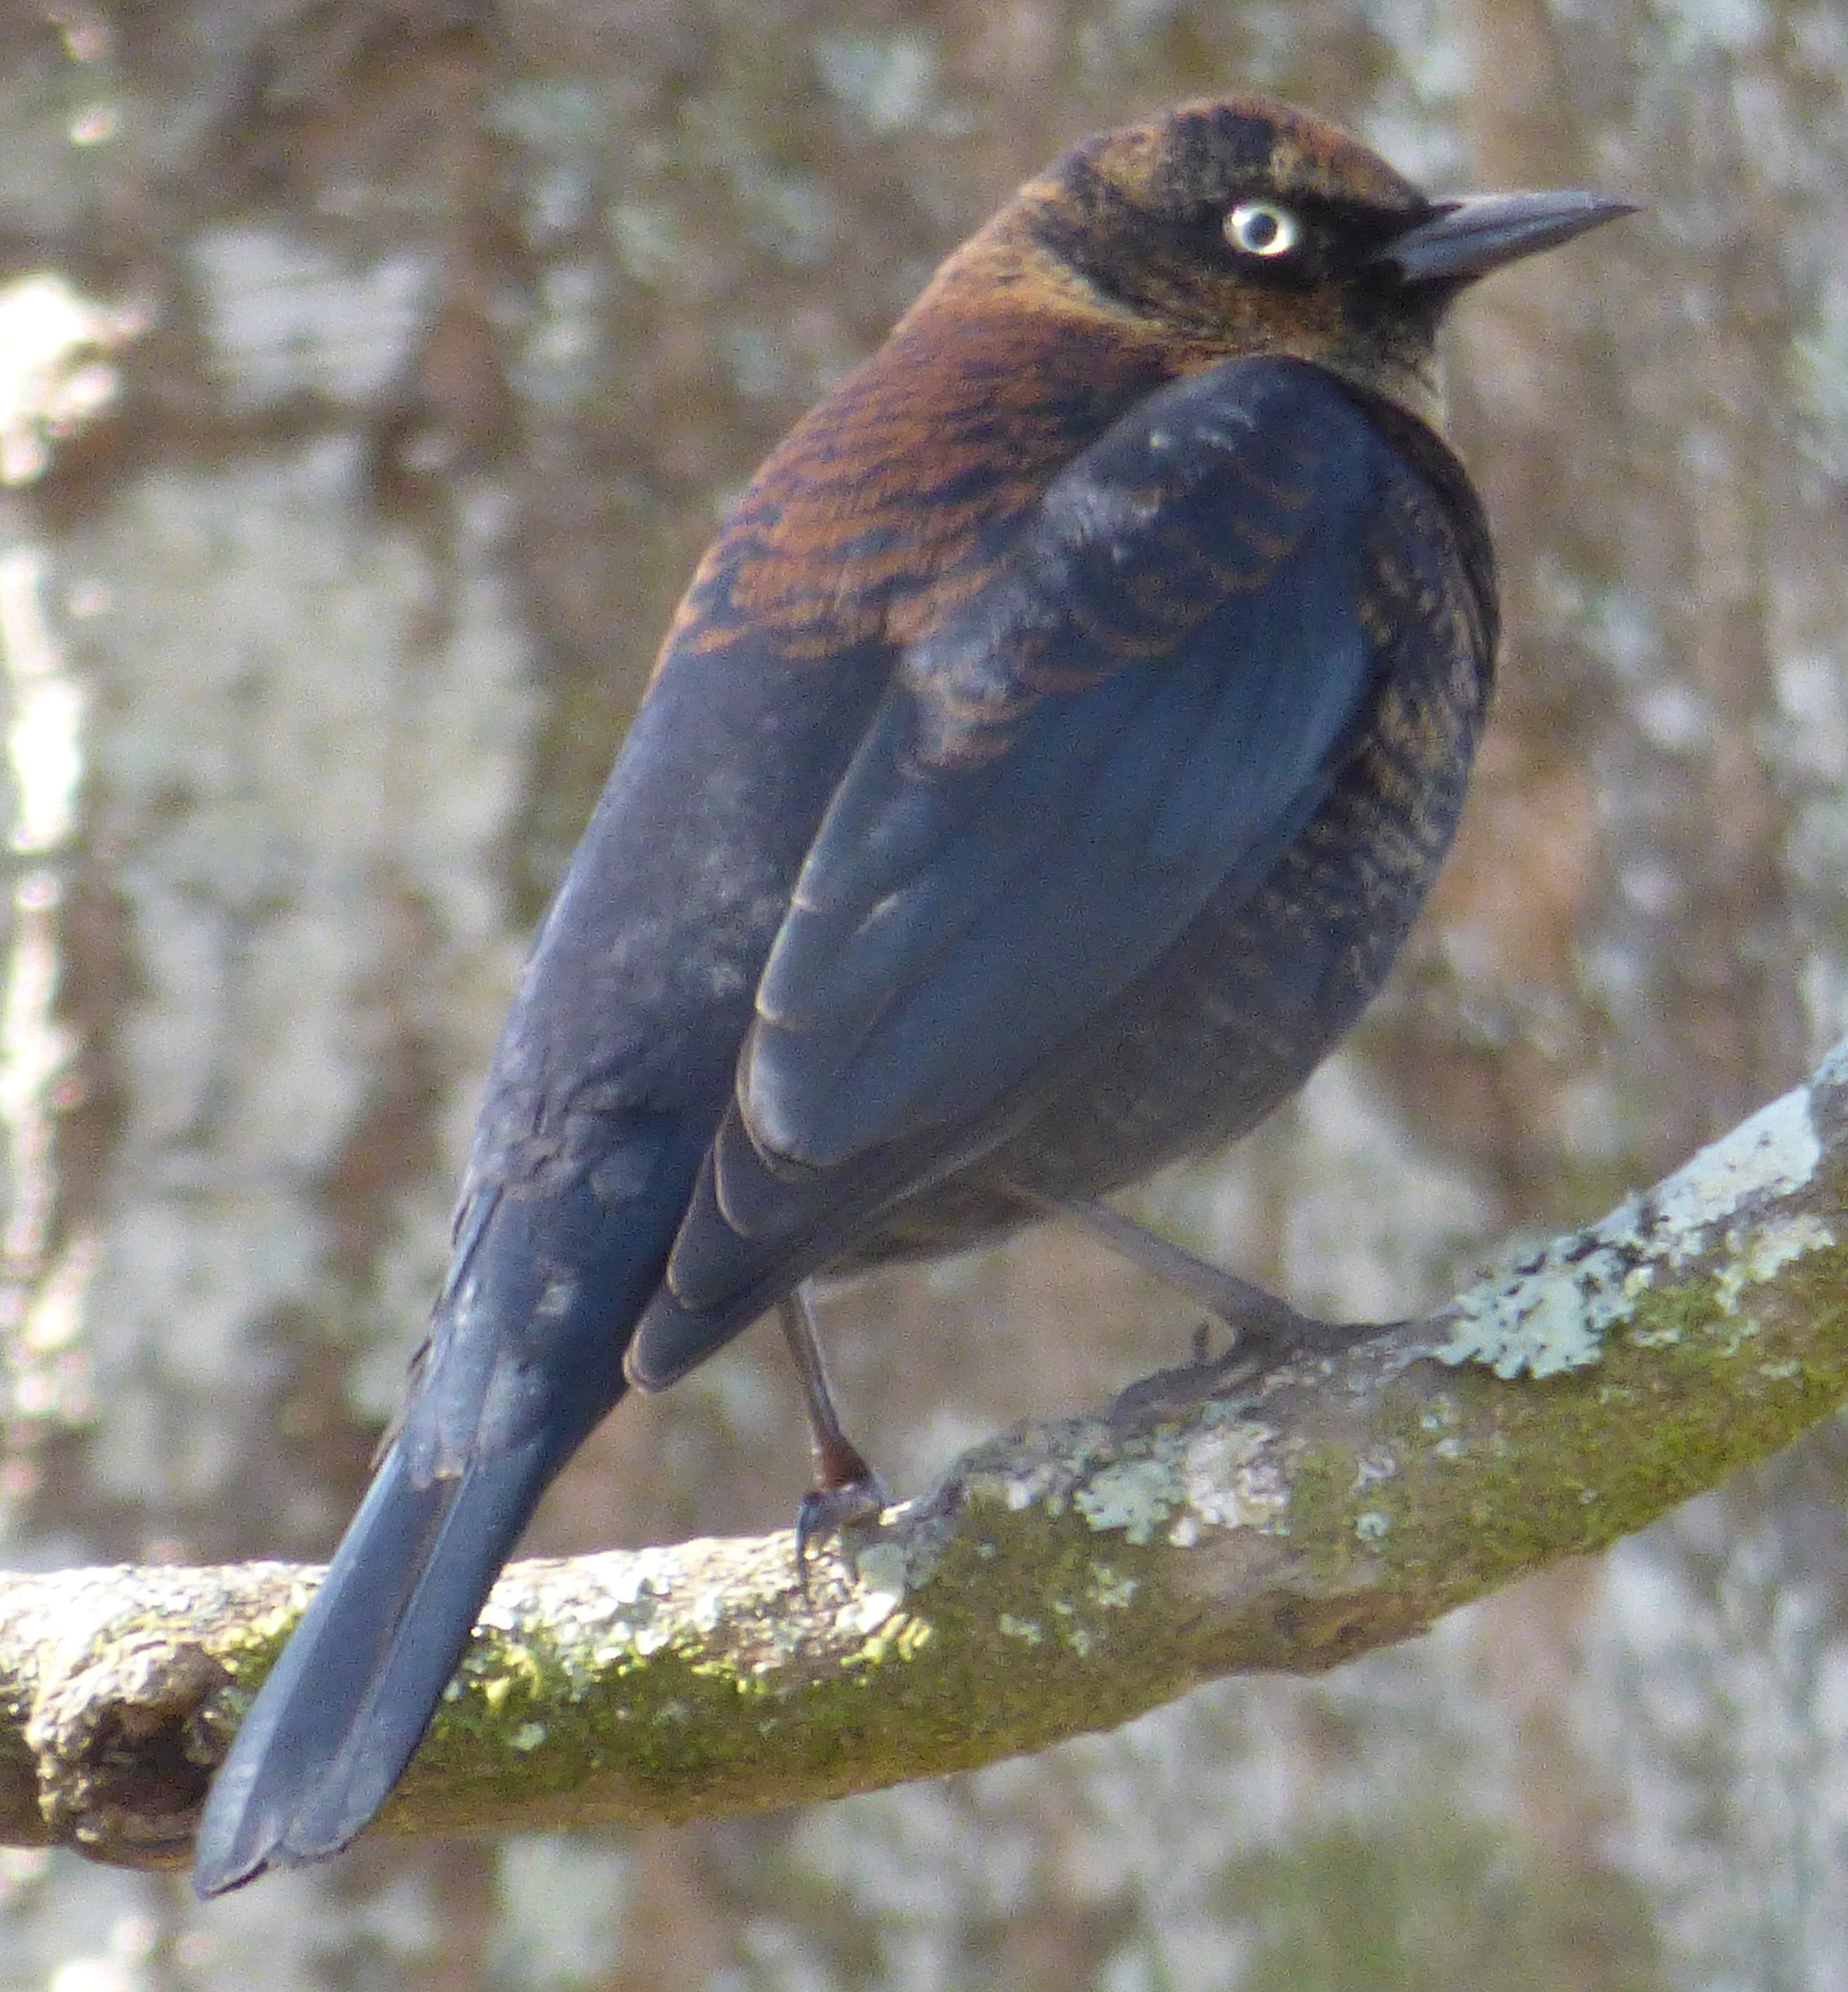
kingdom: Animalia
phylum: Chordata
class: Aves
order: Passeriformes
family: Icteridae
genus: Euphagus
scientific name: Euphagus carolinus
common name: Rusty blackbird
